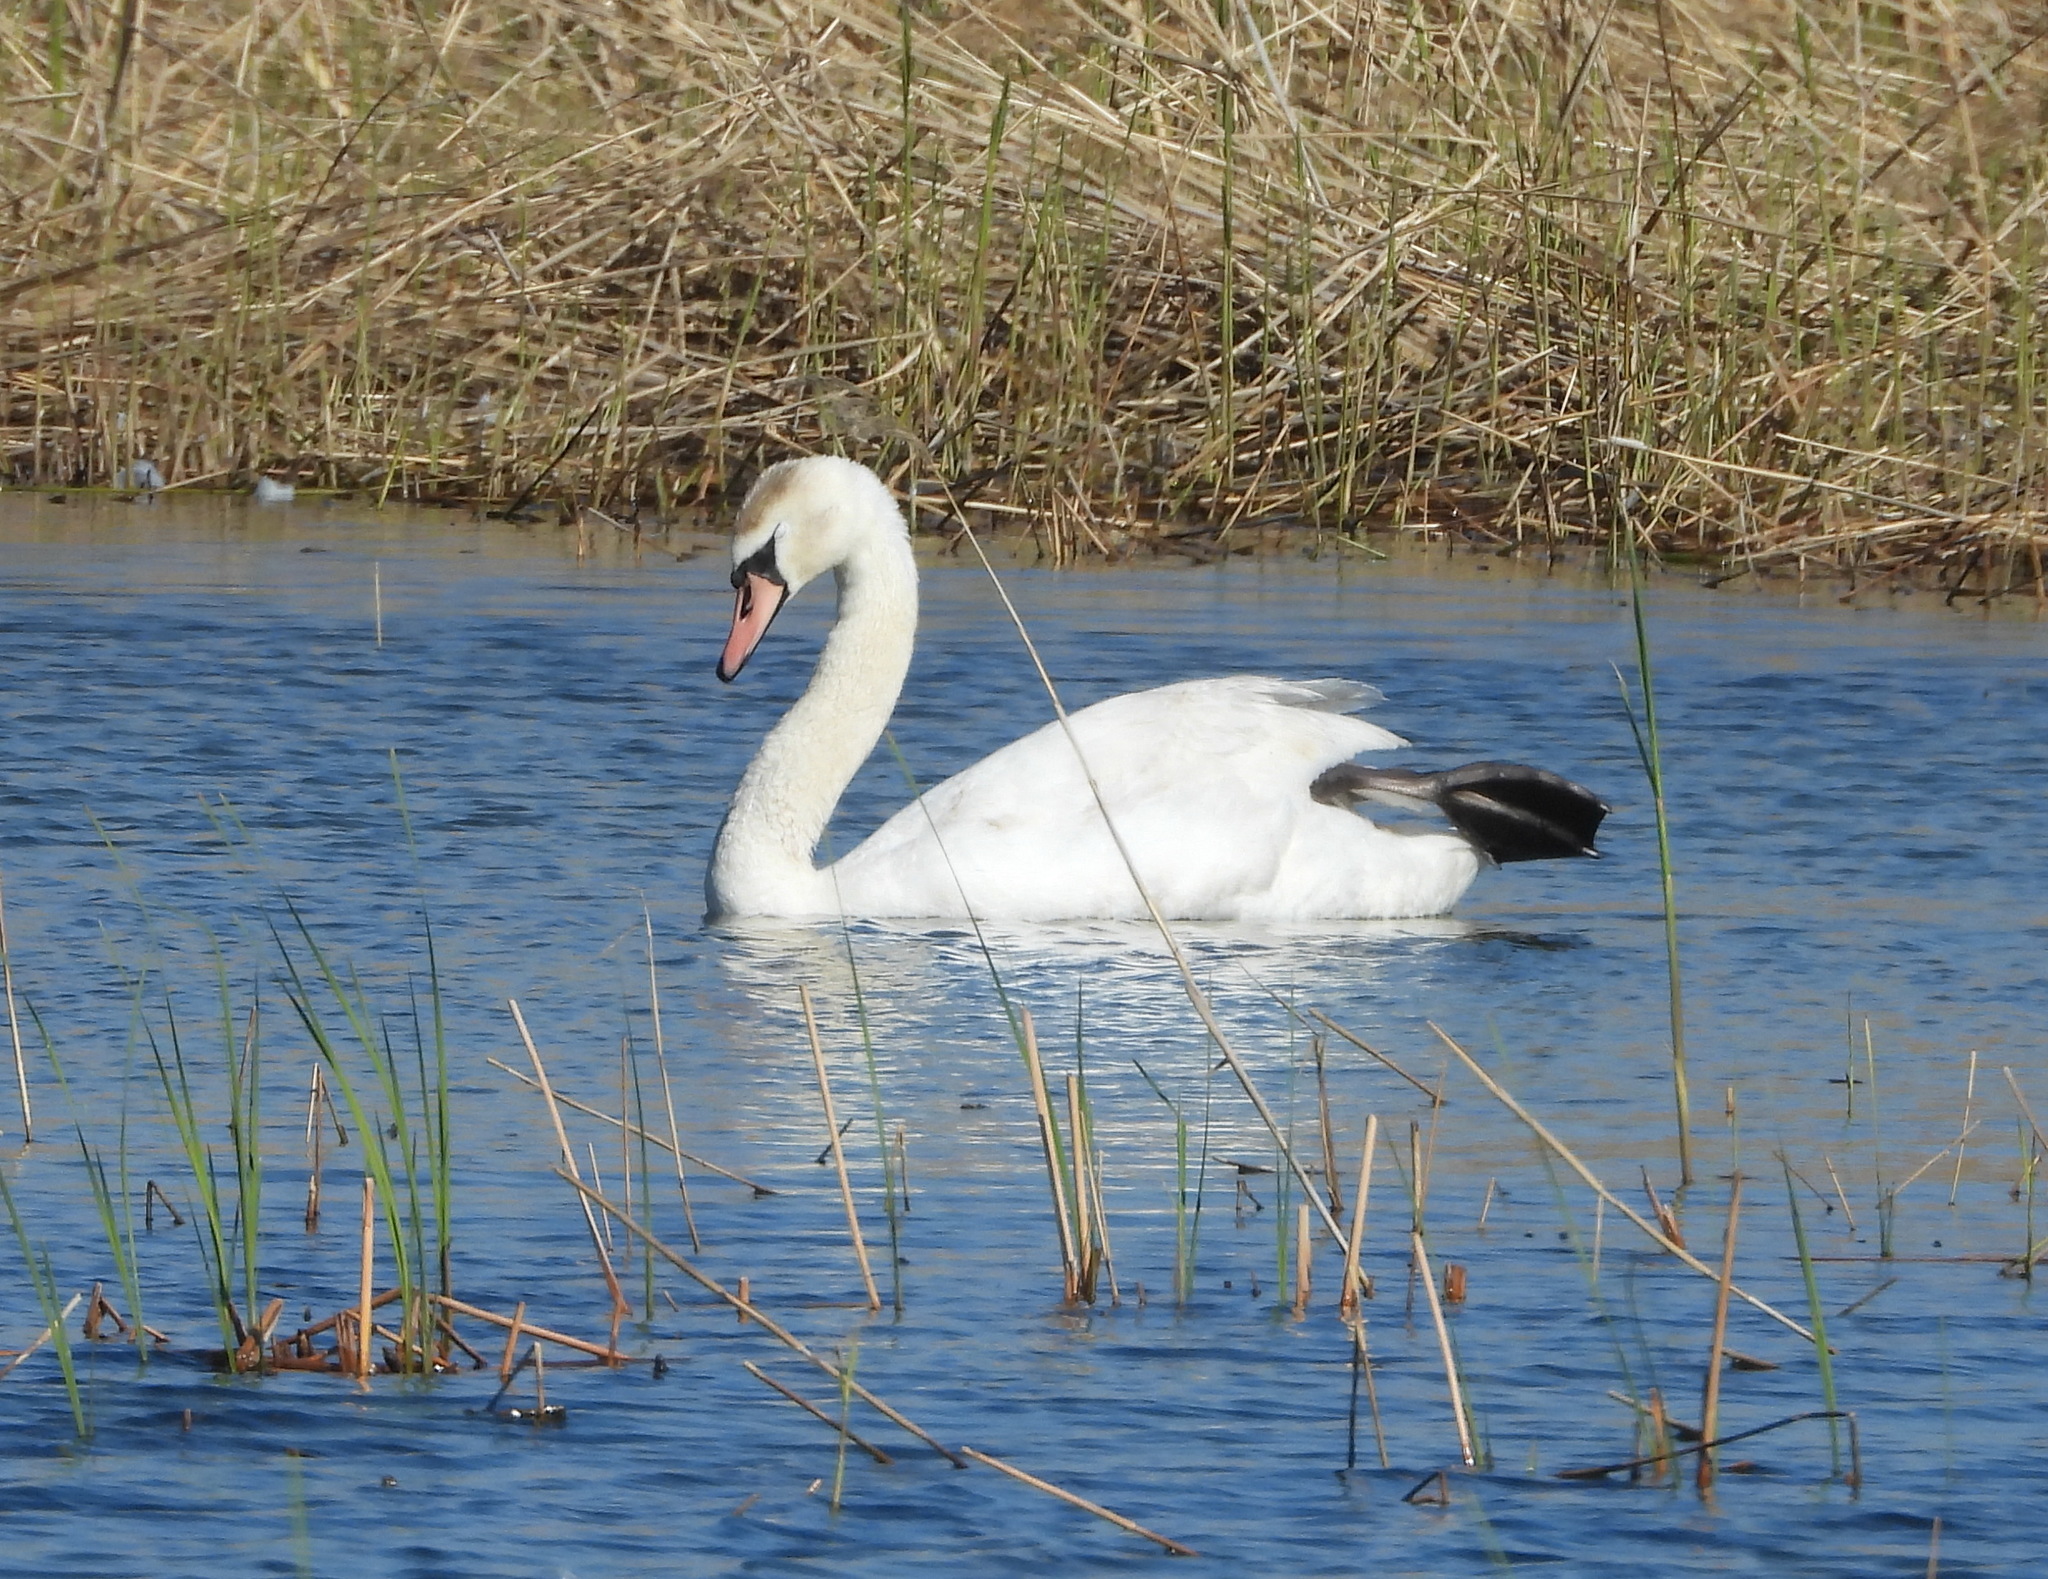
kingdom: Animalia
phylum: Chordata
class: Aves
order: Anseriformes
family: Anatidae
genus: Cygnus
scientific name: Cygnus olor
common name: Mute swan
